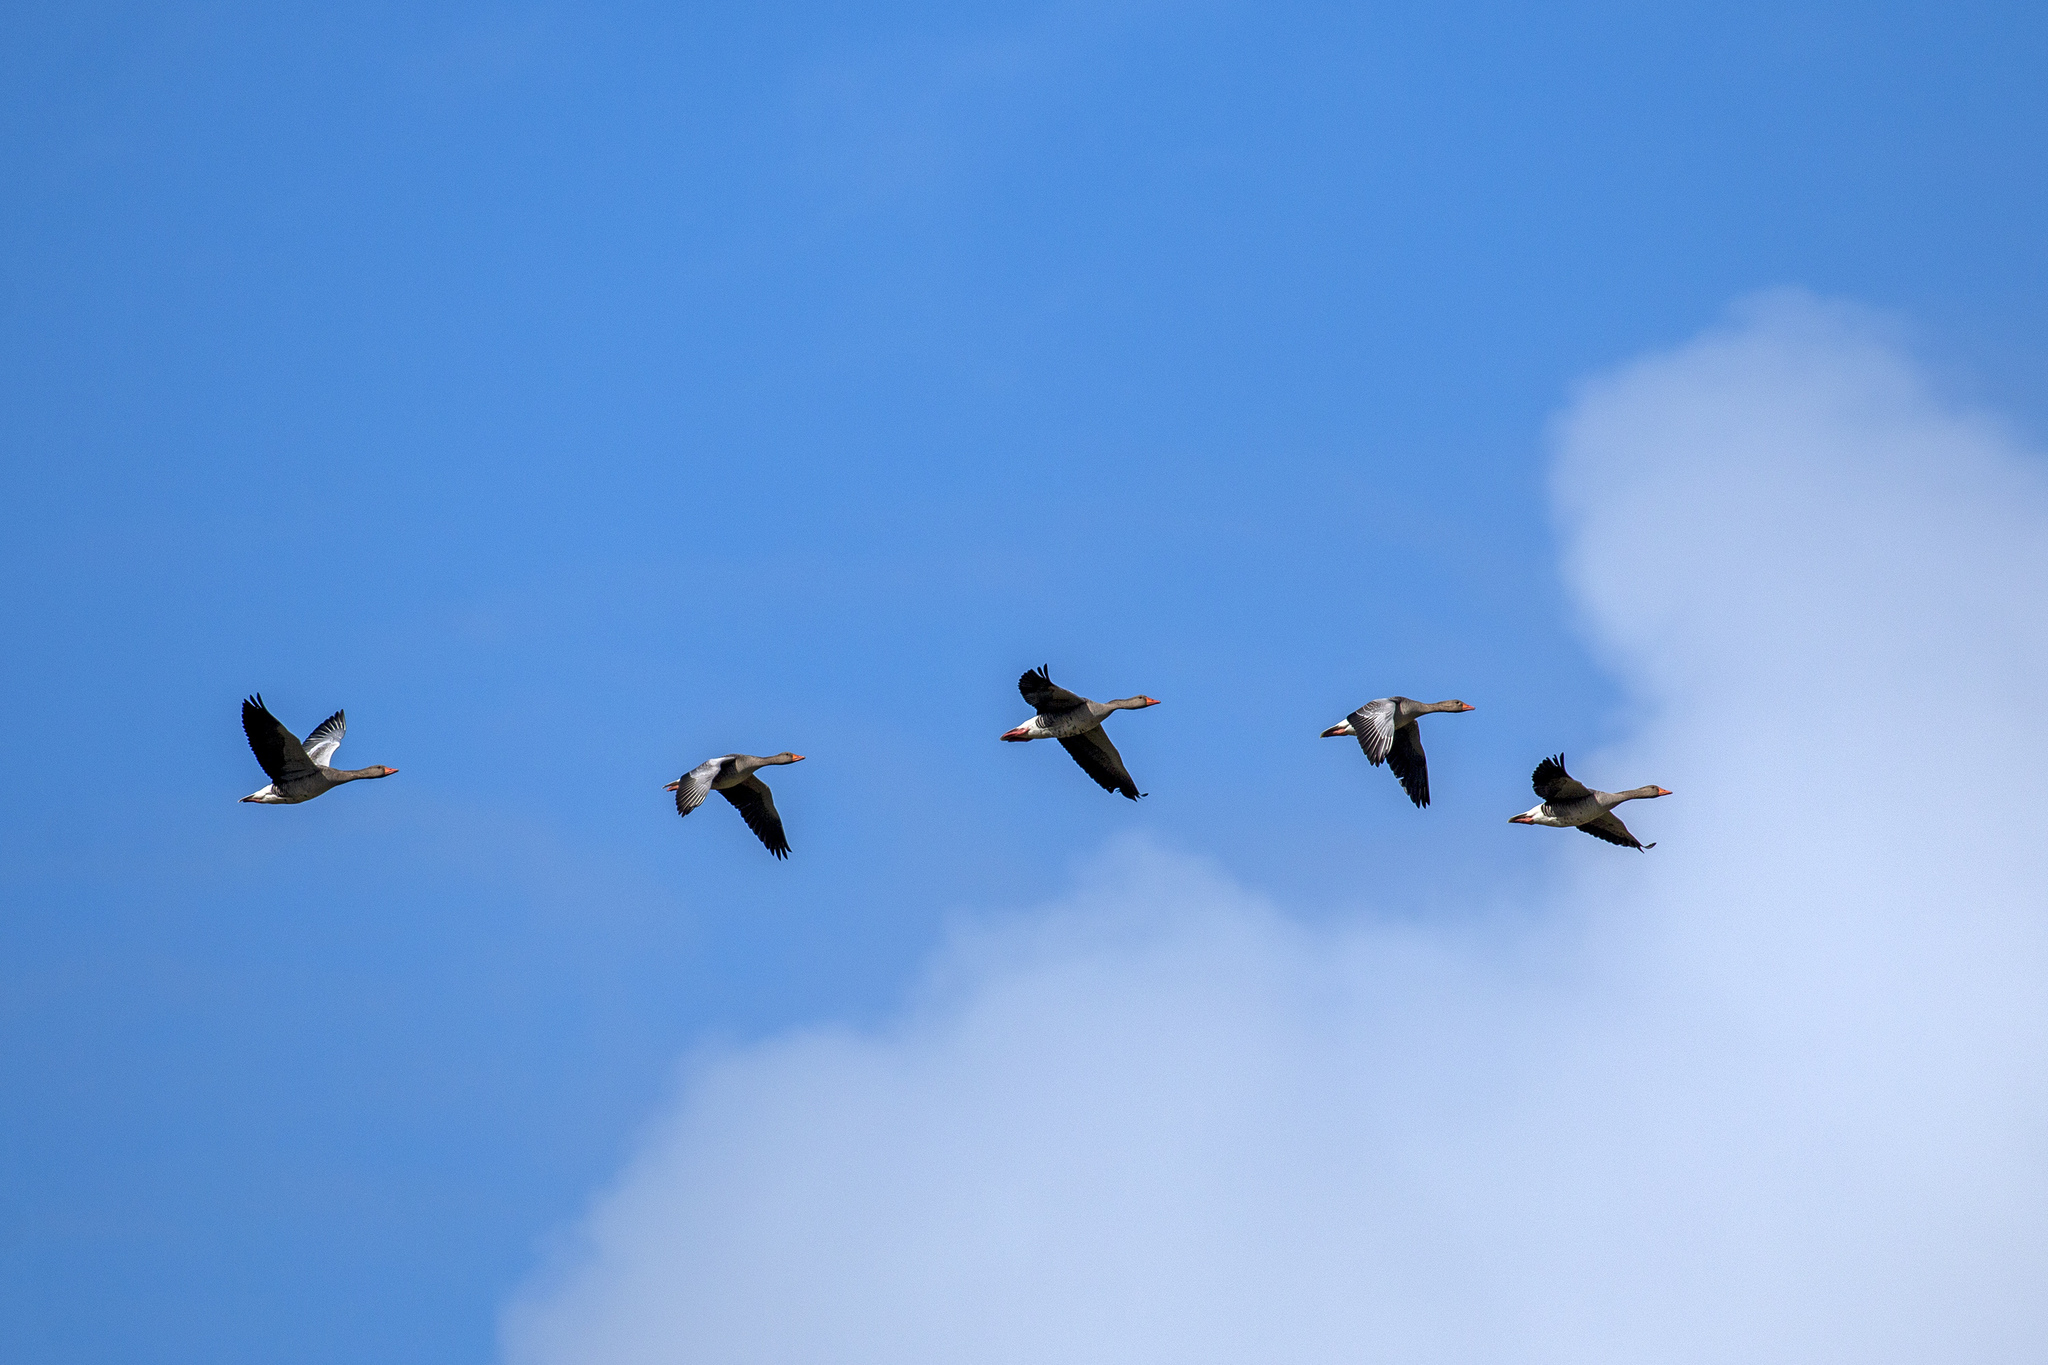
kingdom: Animalia
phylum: Chordata
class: Aves
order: Anseriformes
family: Anatidae
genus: Anser
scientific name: Anser anser
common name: Greylag goose
